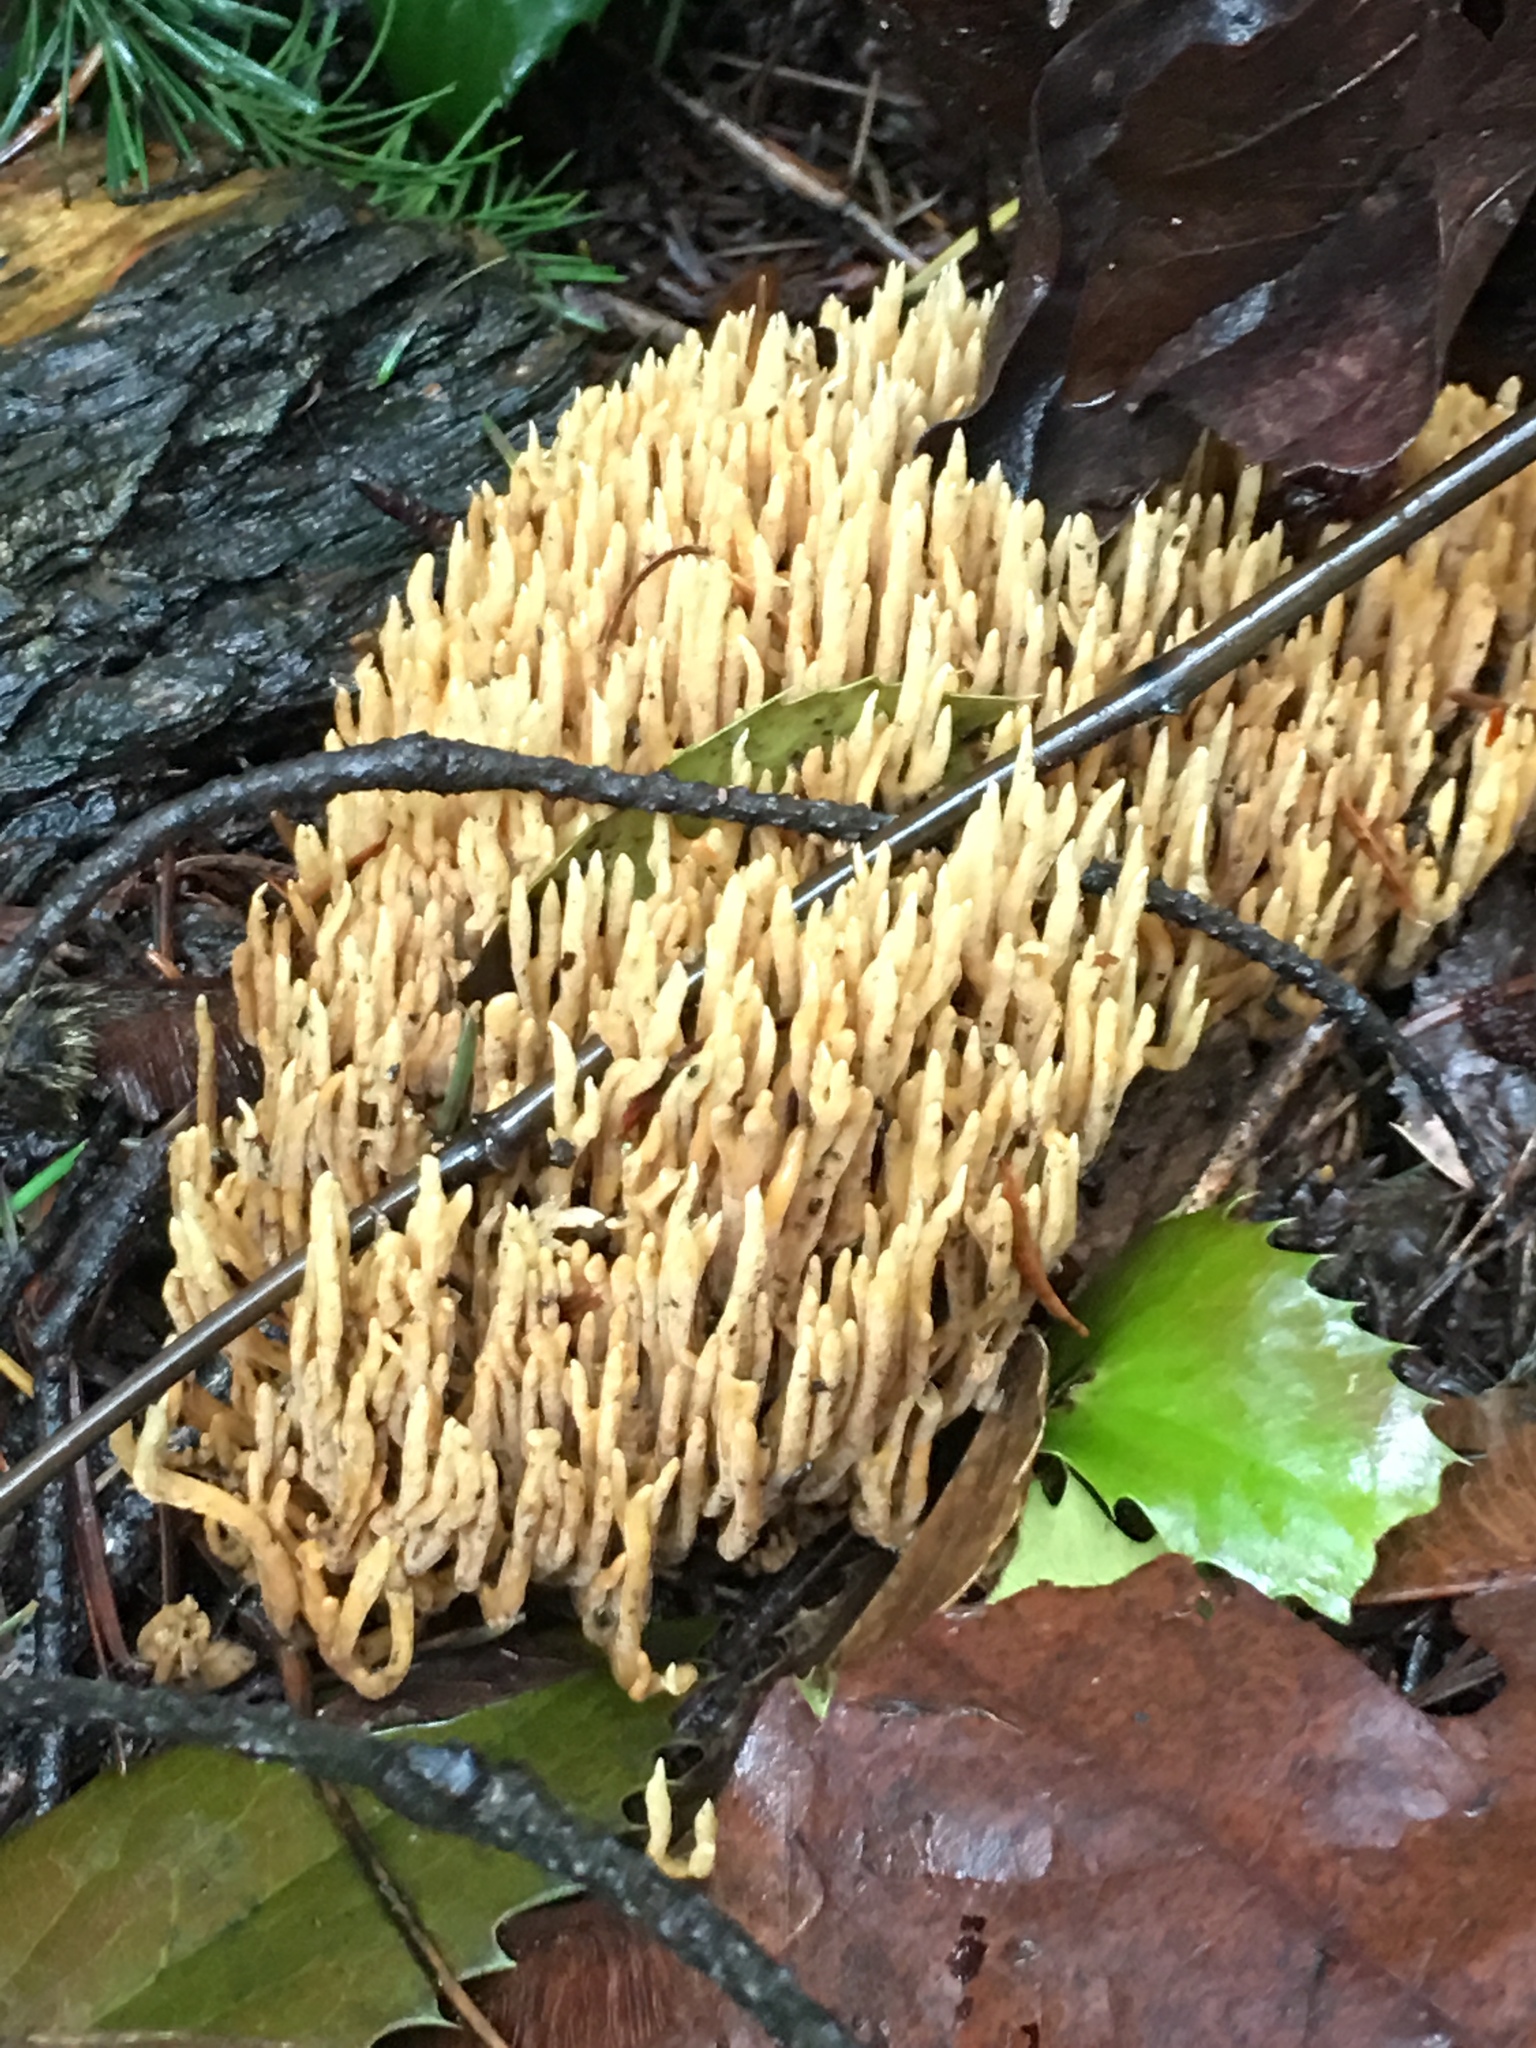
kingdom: Fungi
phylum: Basidiomycota
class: Agaricomycetes
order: Gomphales
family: Gomphaceae
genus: Ramaria
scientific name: Ramaria stricta
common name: Upright coral
